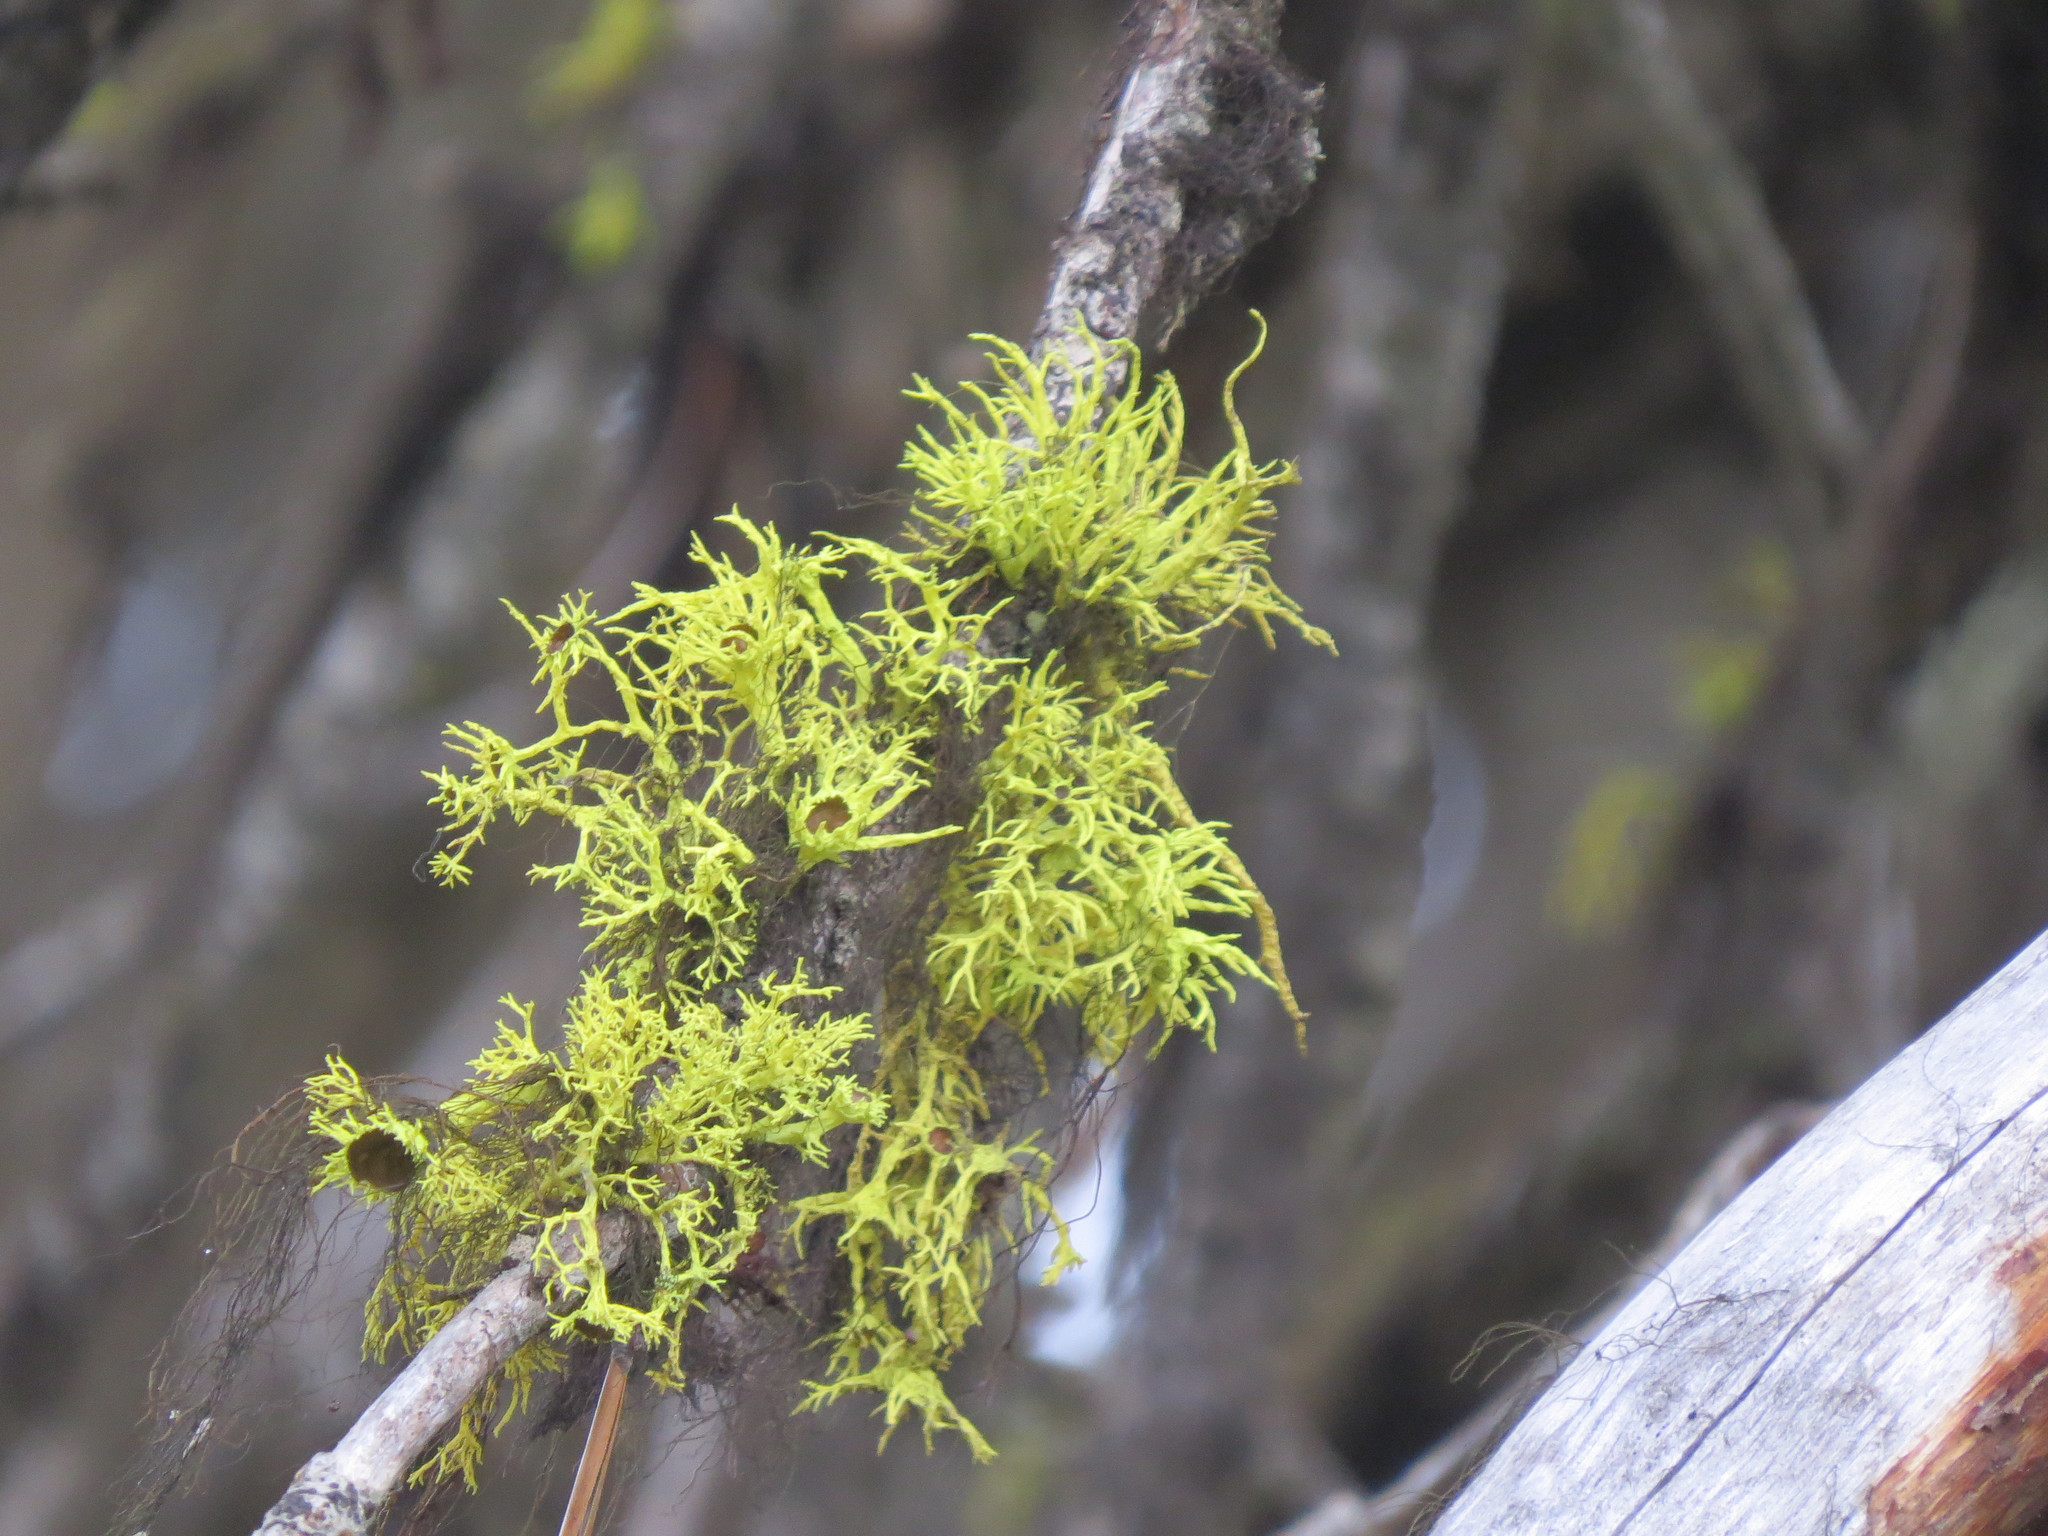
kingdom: Fungi
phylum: Ascomycota
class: Lecanoromycetes
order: Lecanorales
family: Parmeliaceae
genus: Letharia
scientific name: Letharia columbiana
